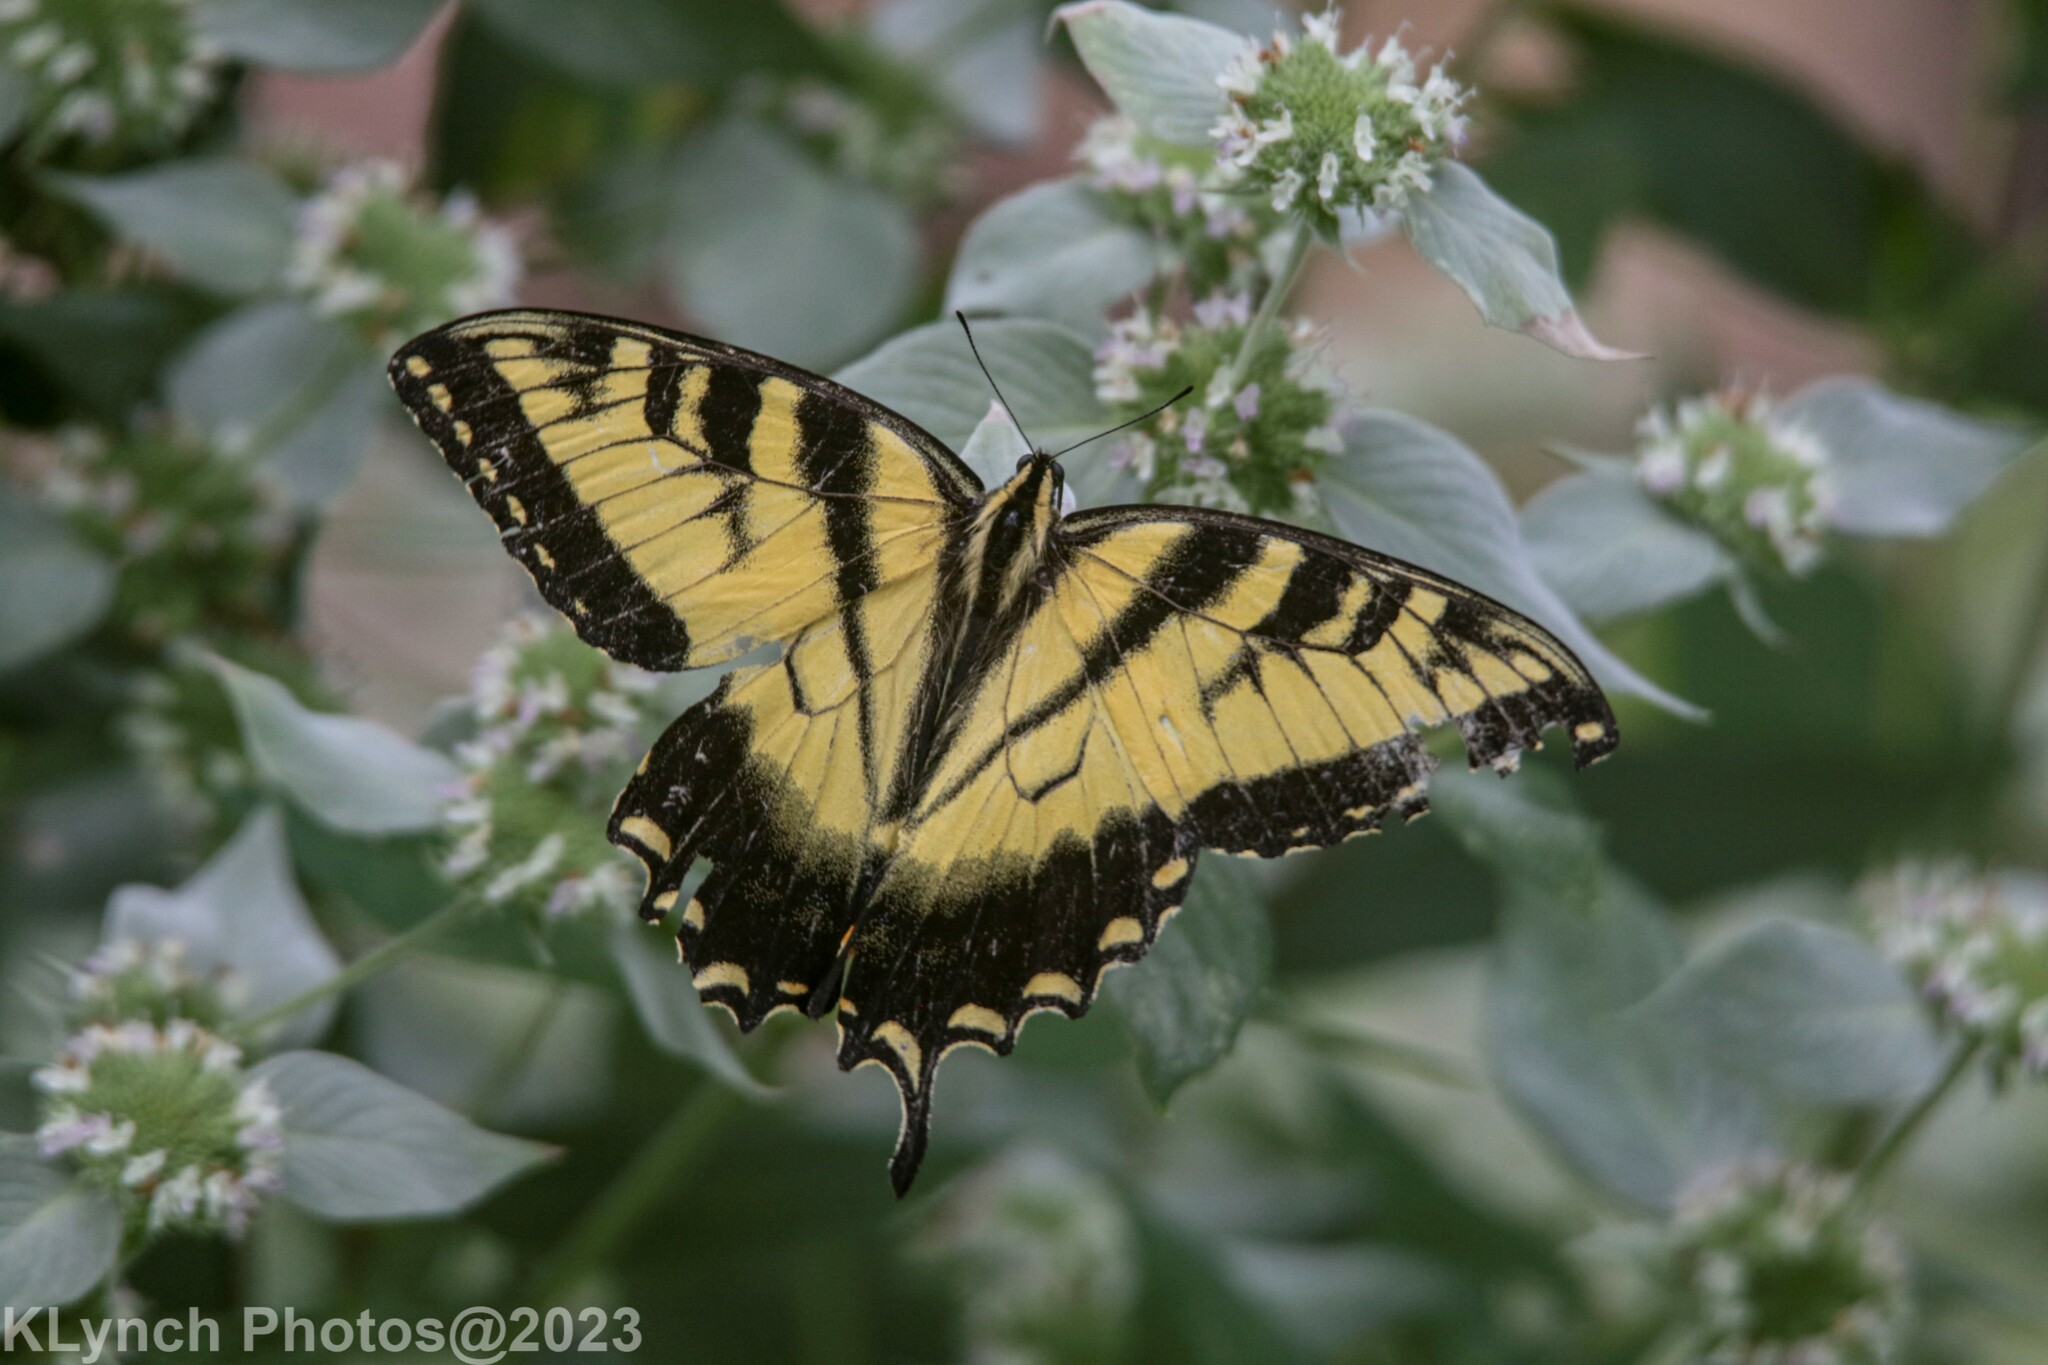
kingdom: Animalia
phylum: Arthropoda
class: Insecta
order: Lepidoptera
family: Papilionidae
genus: Papilio
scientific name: Papilio glaucus
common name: Tiger swallowtail
